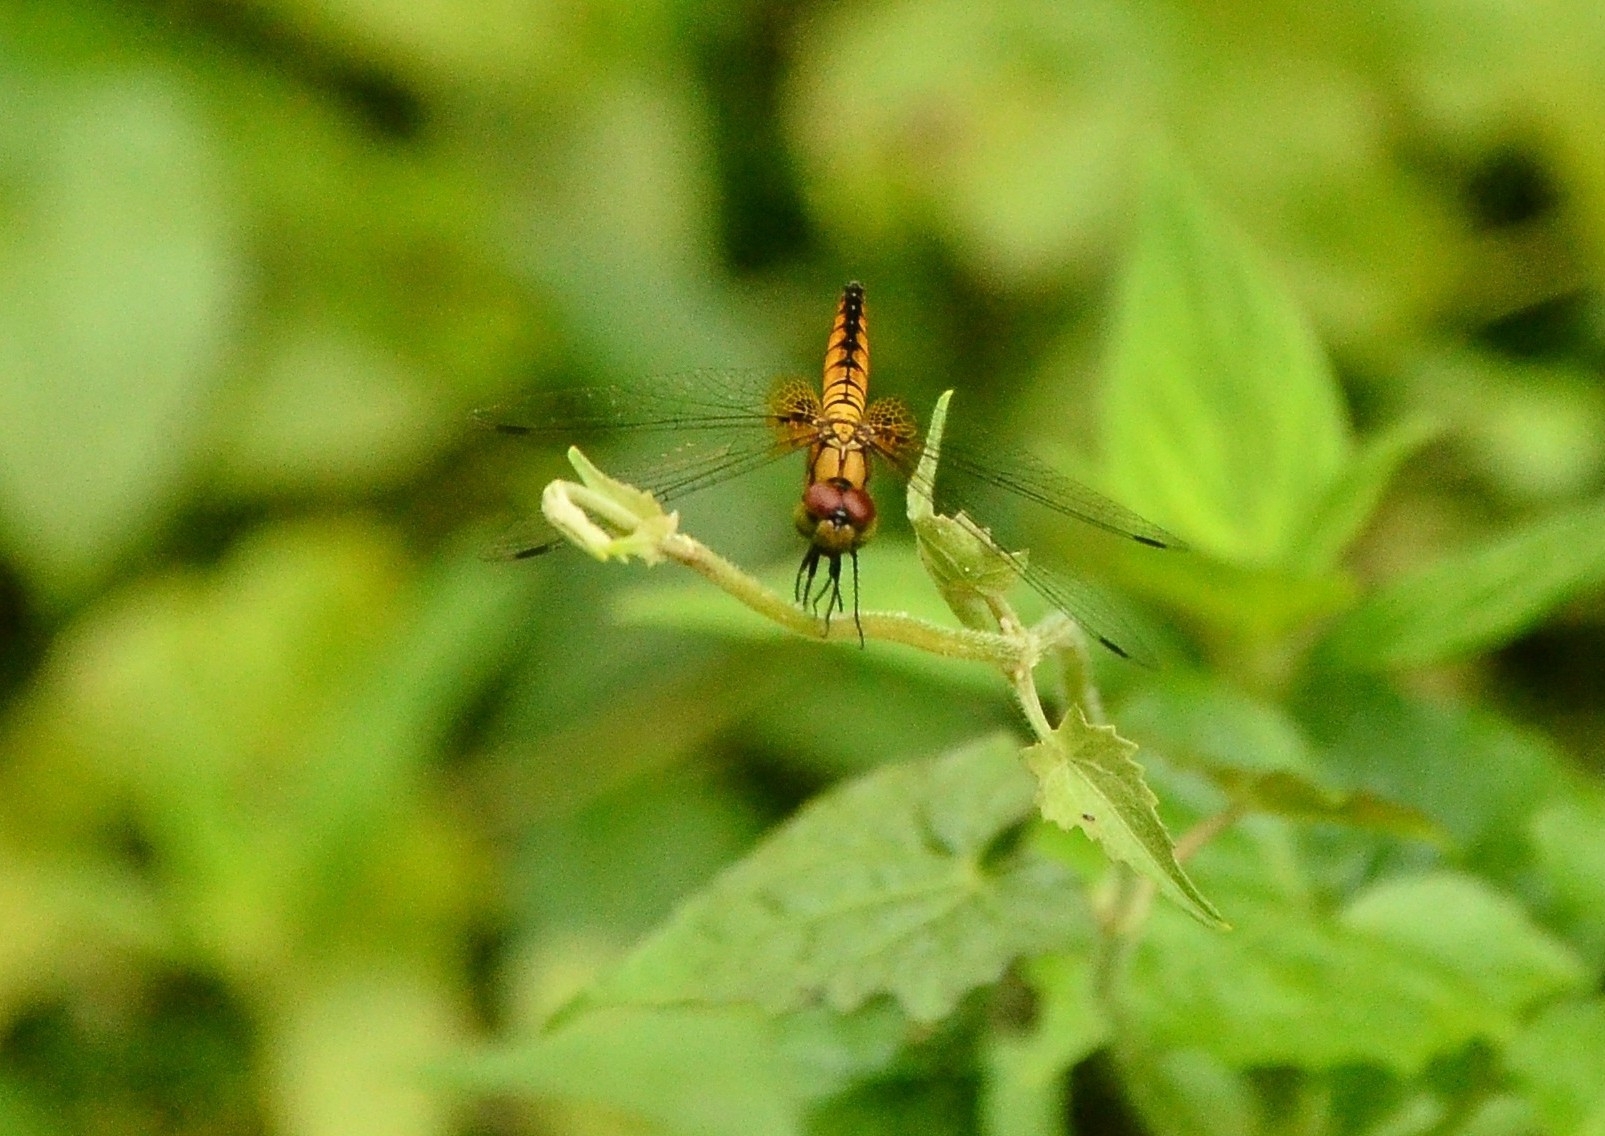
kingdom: Animalia
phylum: Arthropoda
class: Insecta
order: Odonata
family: Libellulidae
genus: Aethriamanta
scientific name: Aethriamanta brevipennis
